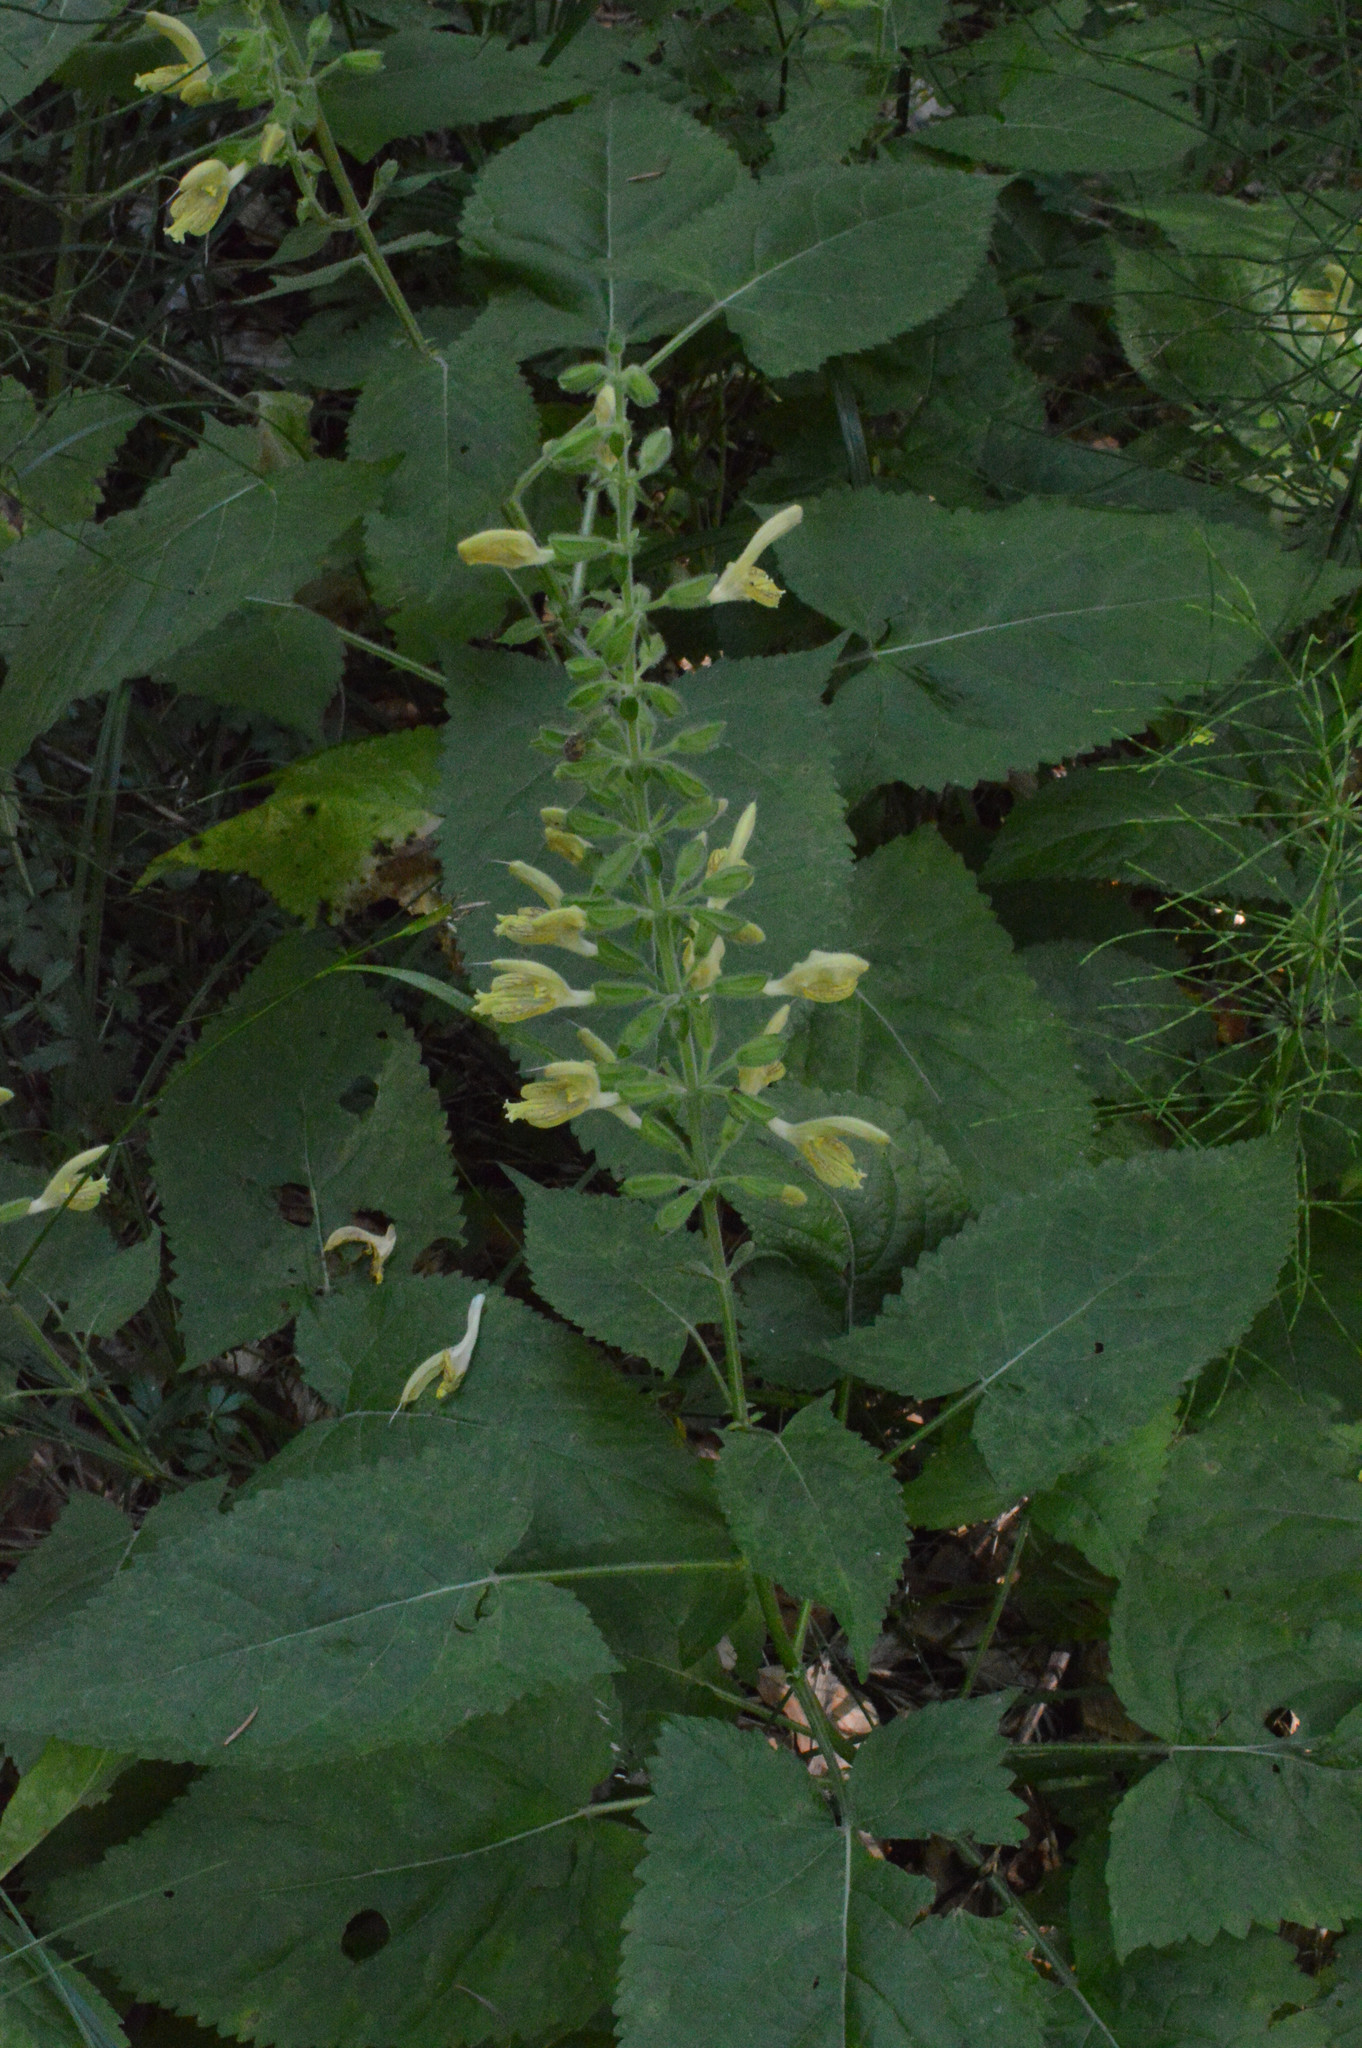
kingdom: Plantae
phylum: Tracheophyta
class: Magnoliopsida
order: Lamiales
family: Lamiaceae
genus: Salvia
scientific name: Salvia glutinosa
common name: Sticky clary
